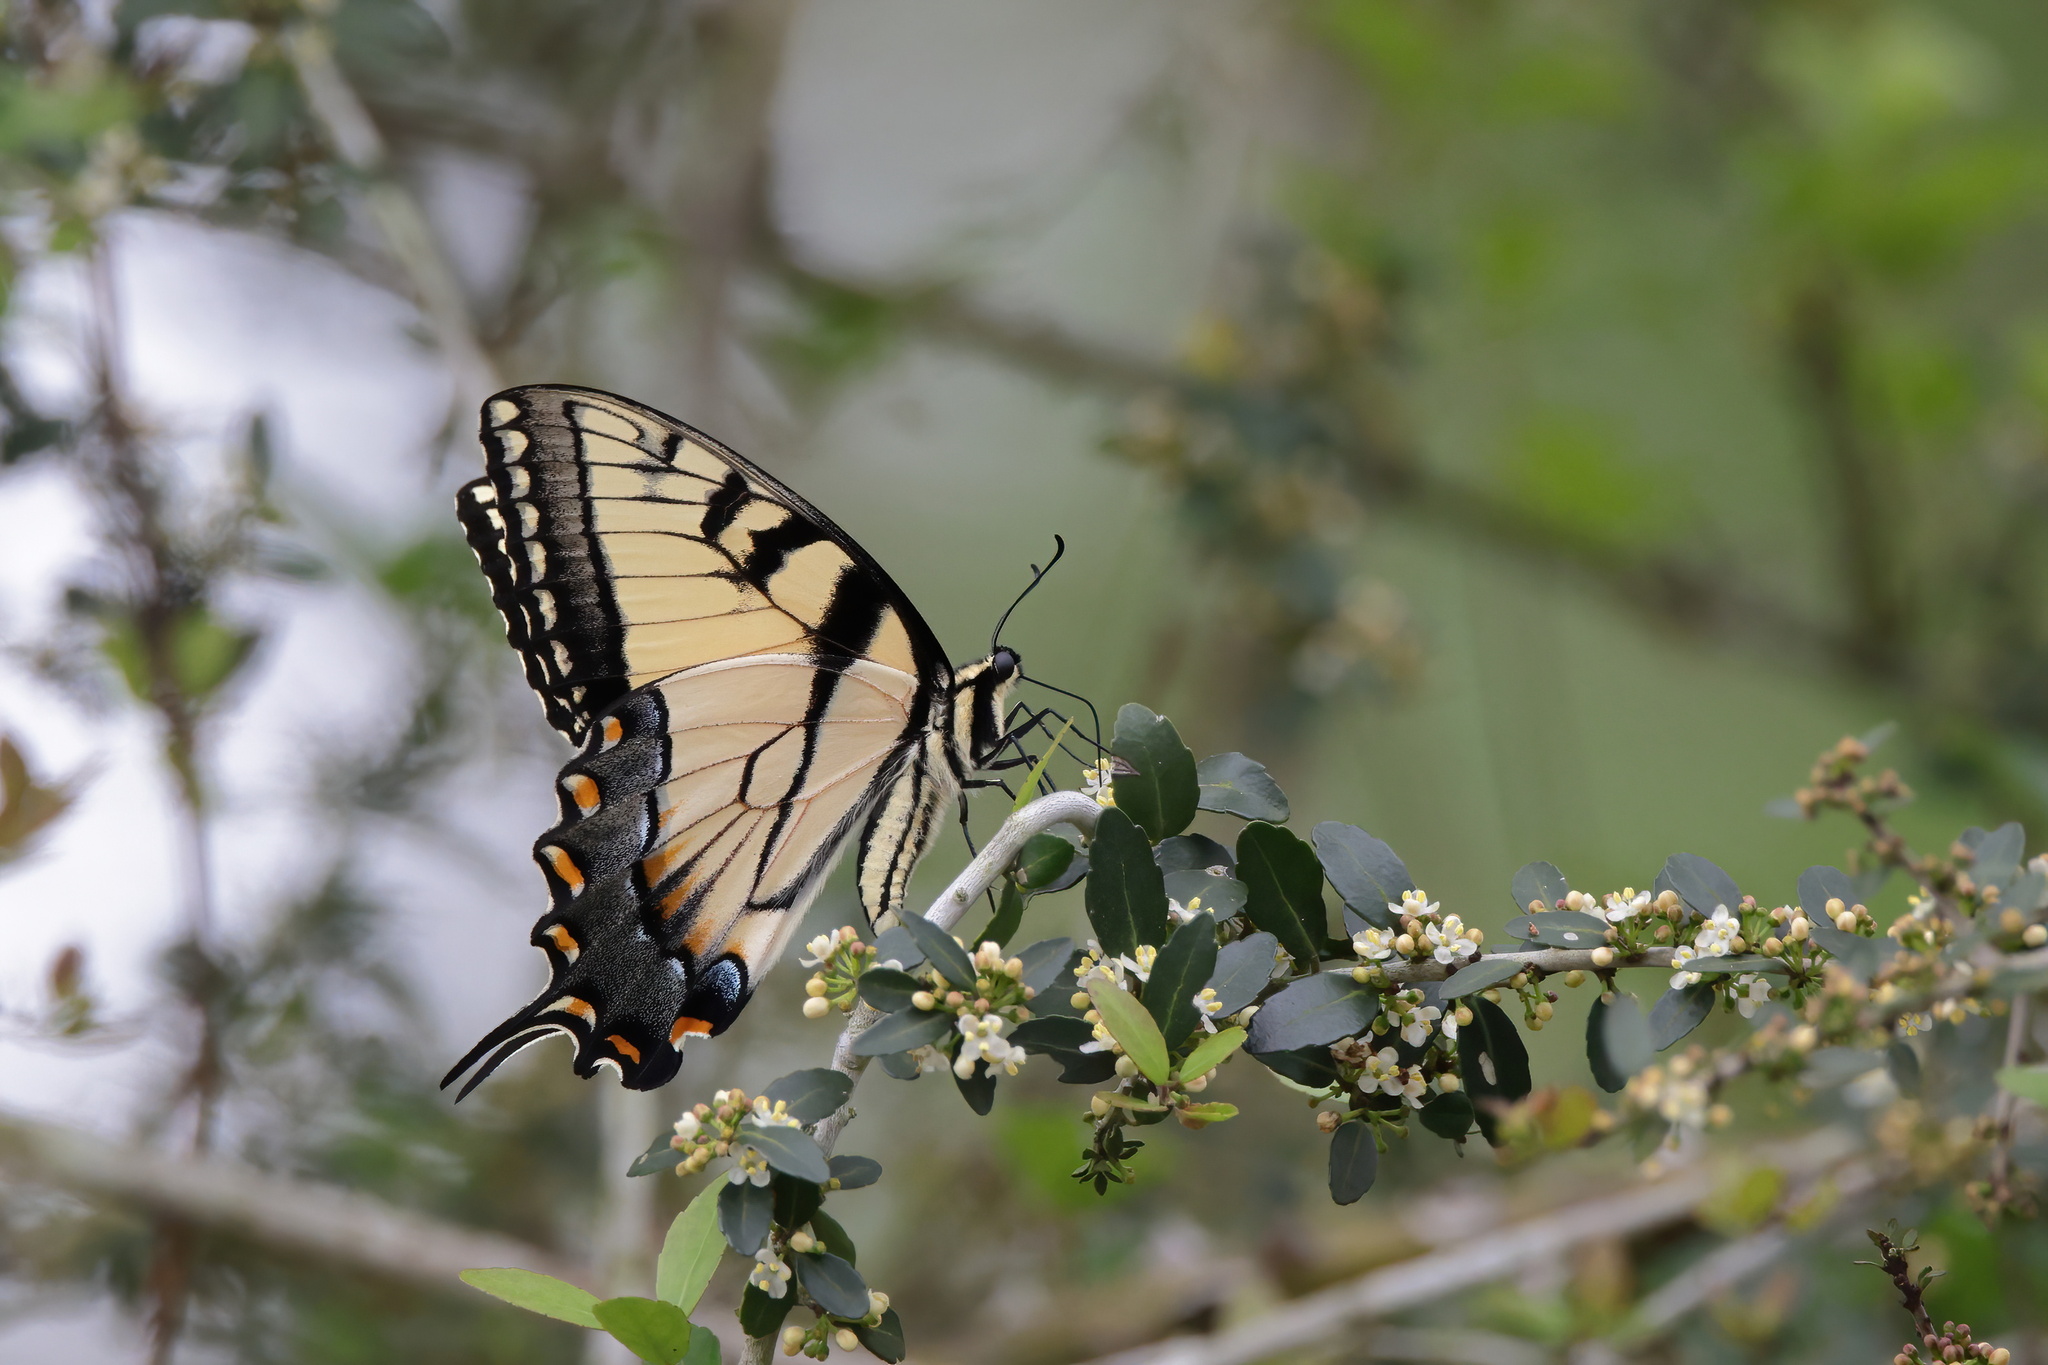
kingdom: Animalia
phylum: Arthropoda
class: Insecta
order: Lepidoptera
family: Papilionidae
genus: Papilio
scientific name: Papilio glaucus
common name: Tiger swallowtail
